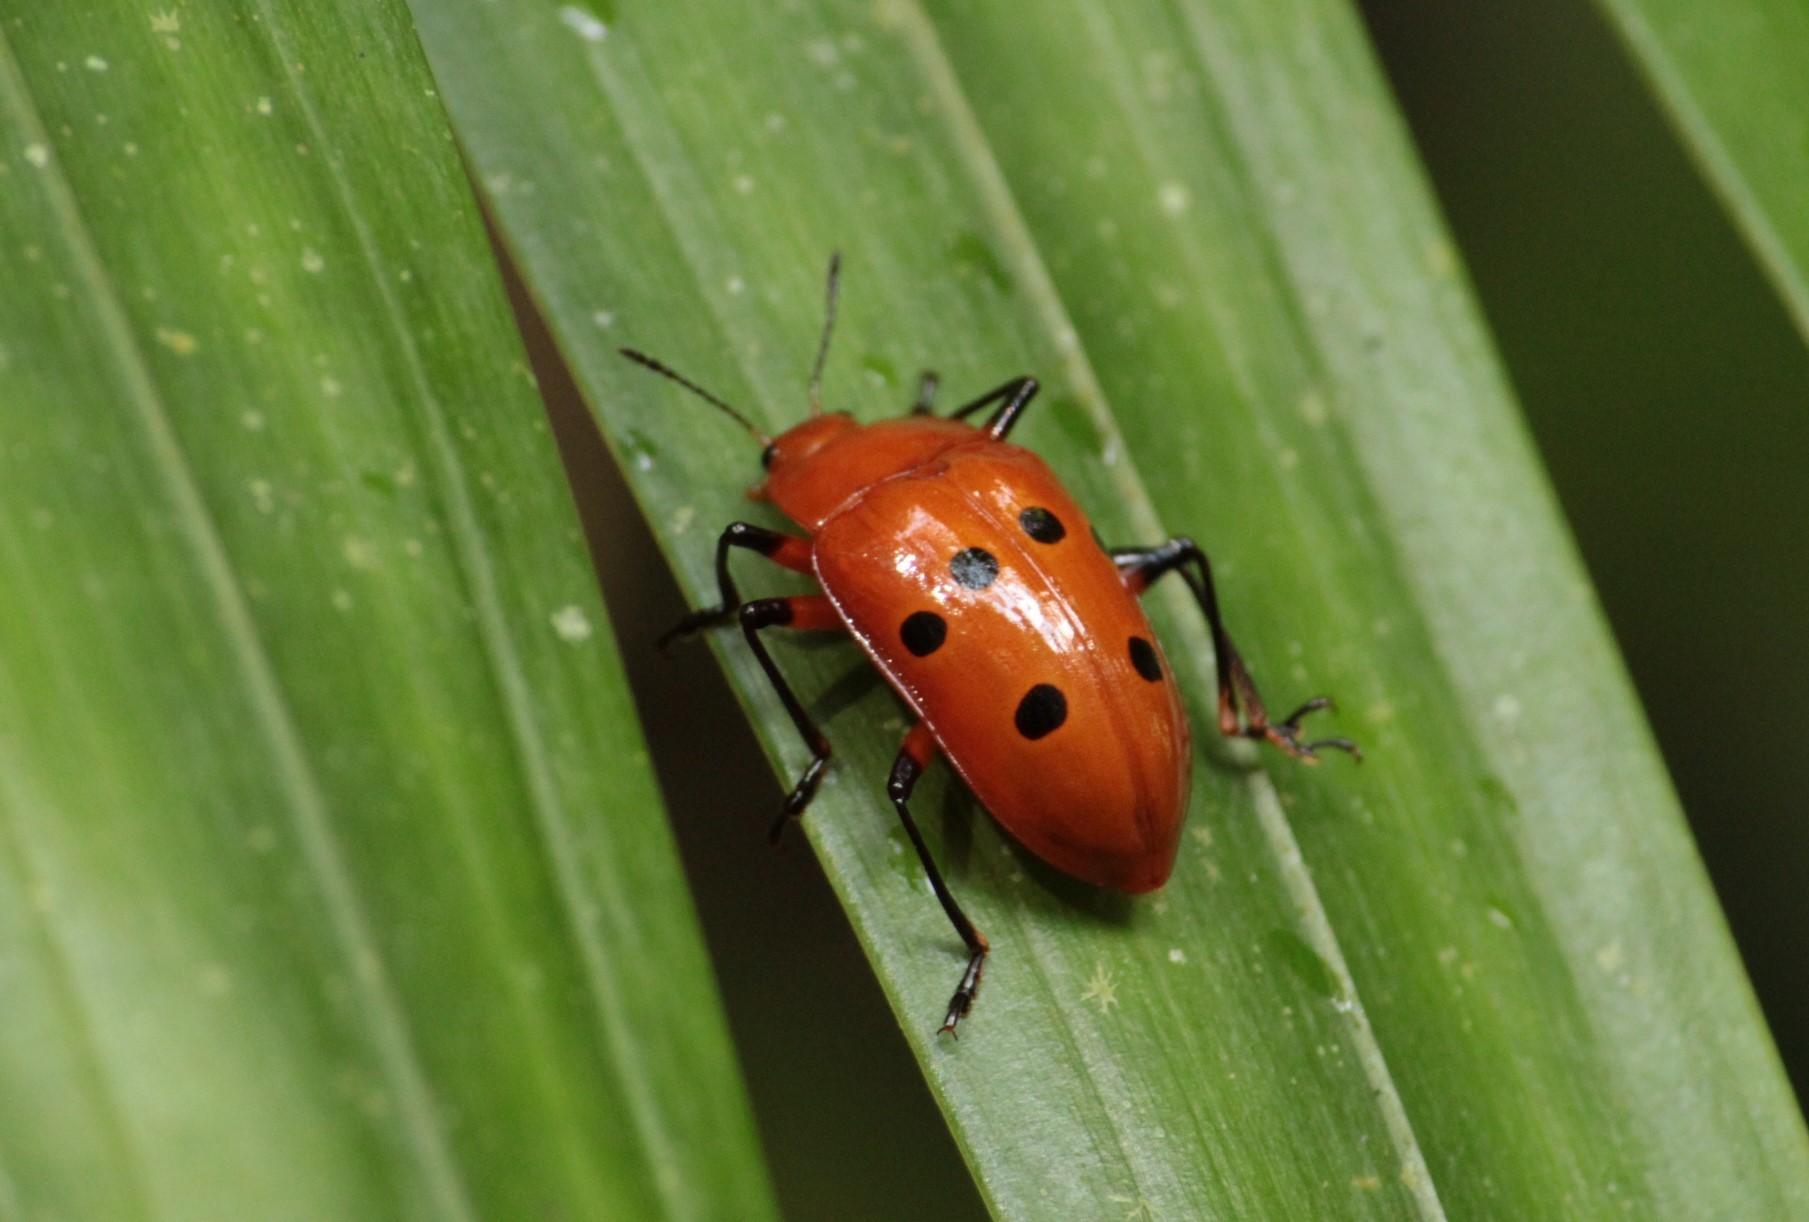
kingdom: Animalia
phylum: Arthropoda
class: Insecta
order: Coleoptera
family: Erotylidae
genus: Iphiclus
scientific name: Iphiclus
